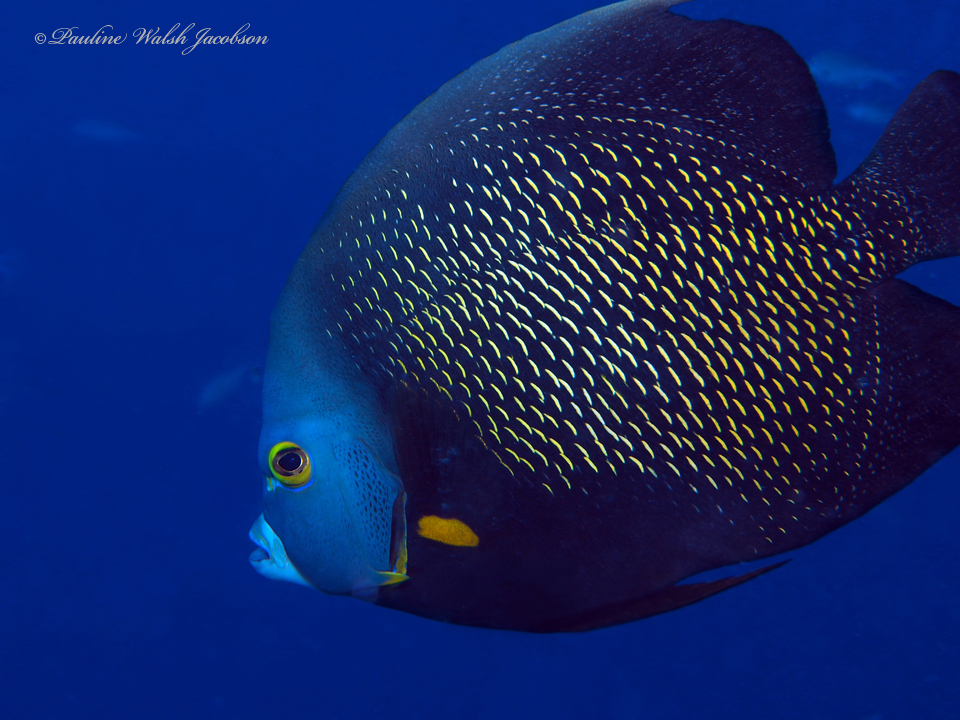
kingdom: Animalia
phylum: Chordata
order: Perciformes
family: Pomacanthidae
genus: Pomacanthus
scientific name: Pomacanthus paru
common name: French angelfish
